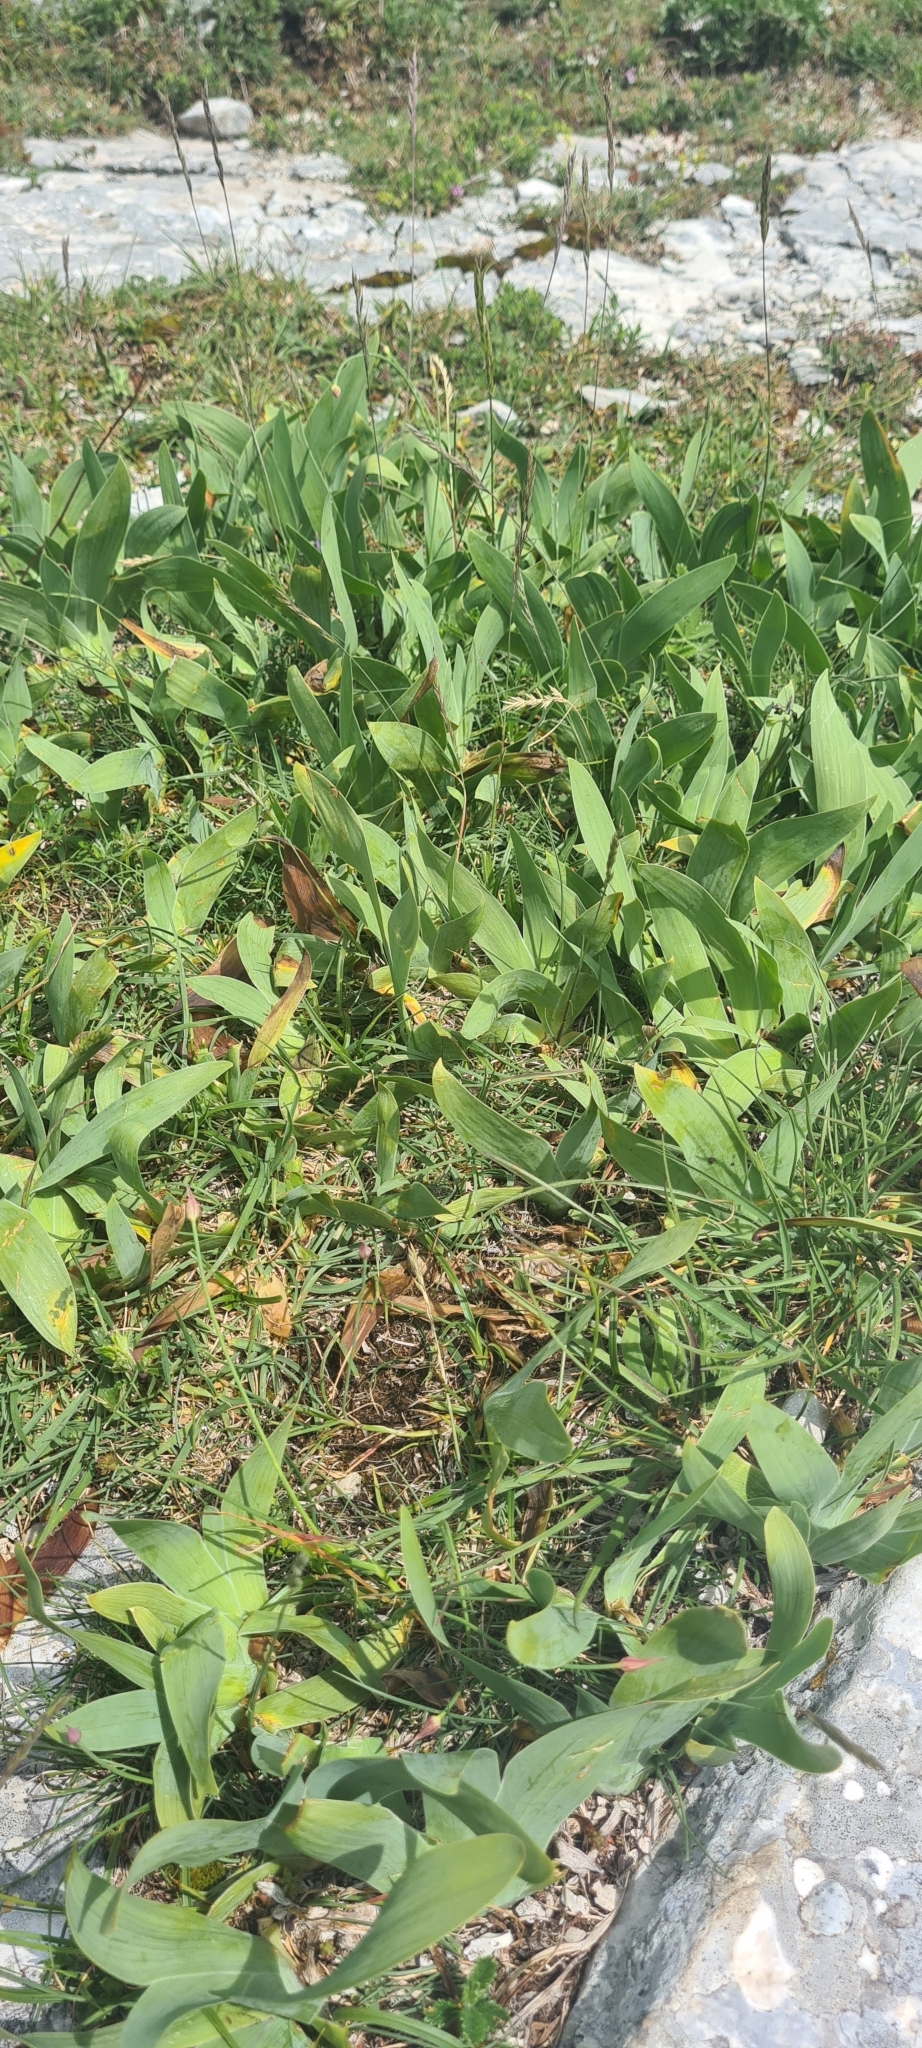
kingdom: Plantae
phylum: Tracheophyta
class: Liliopsida
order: Asparagales
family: Iridaceae
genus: Iris
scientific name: Iris sabina
